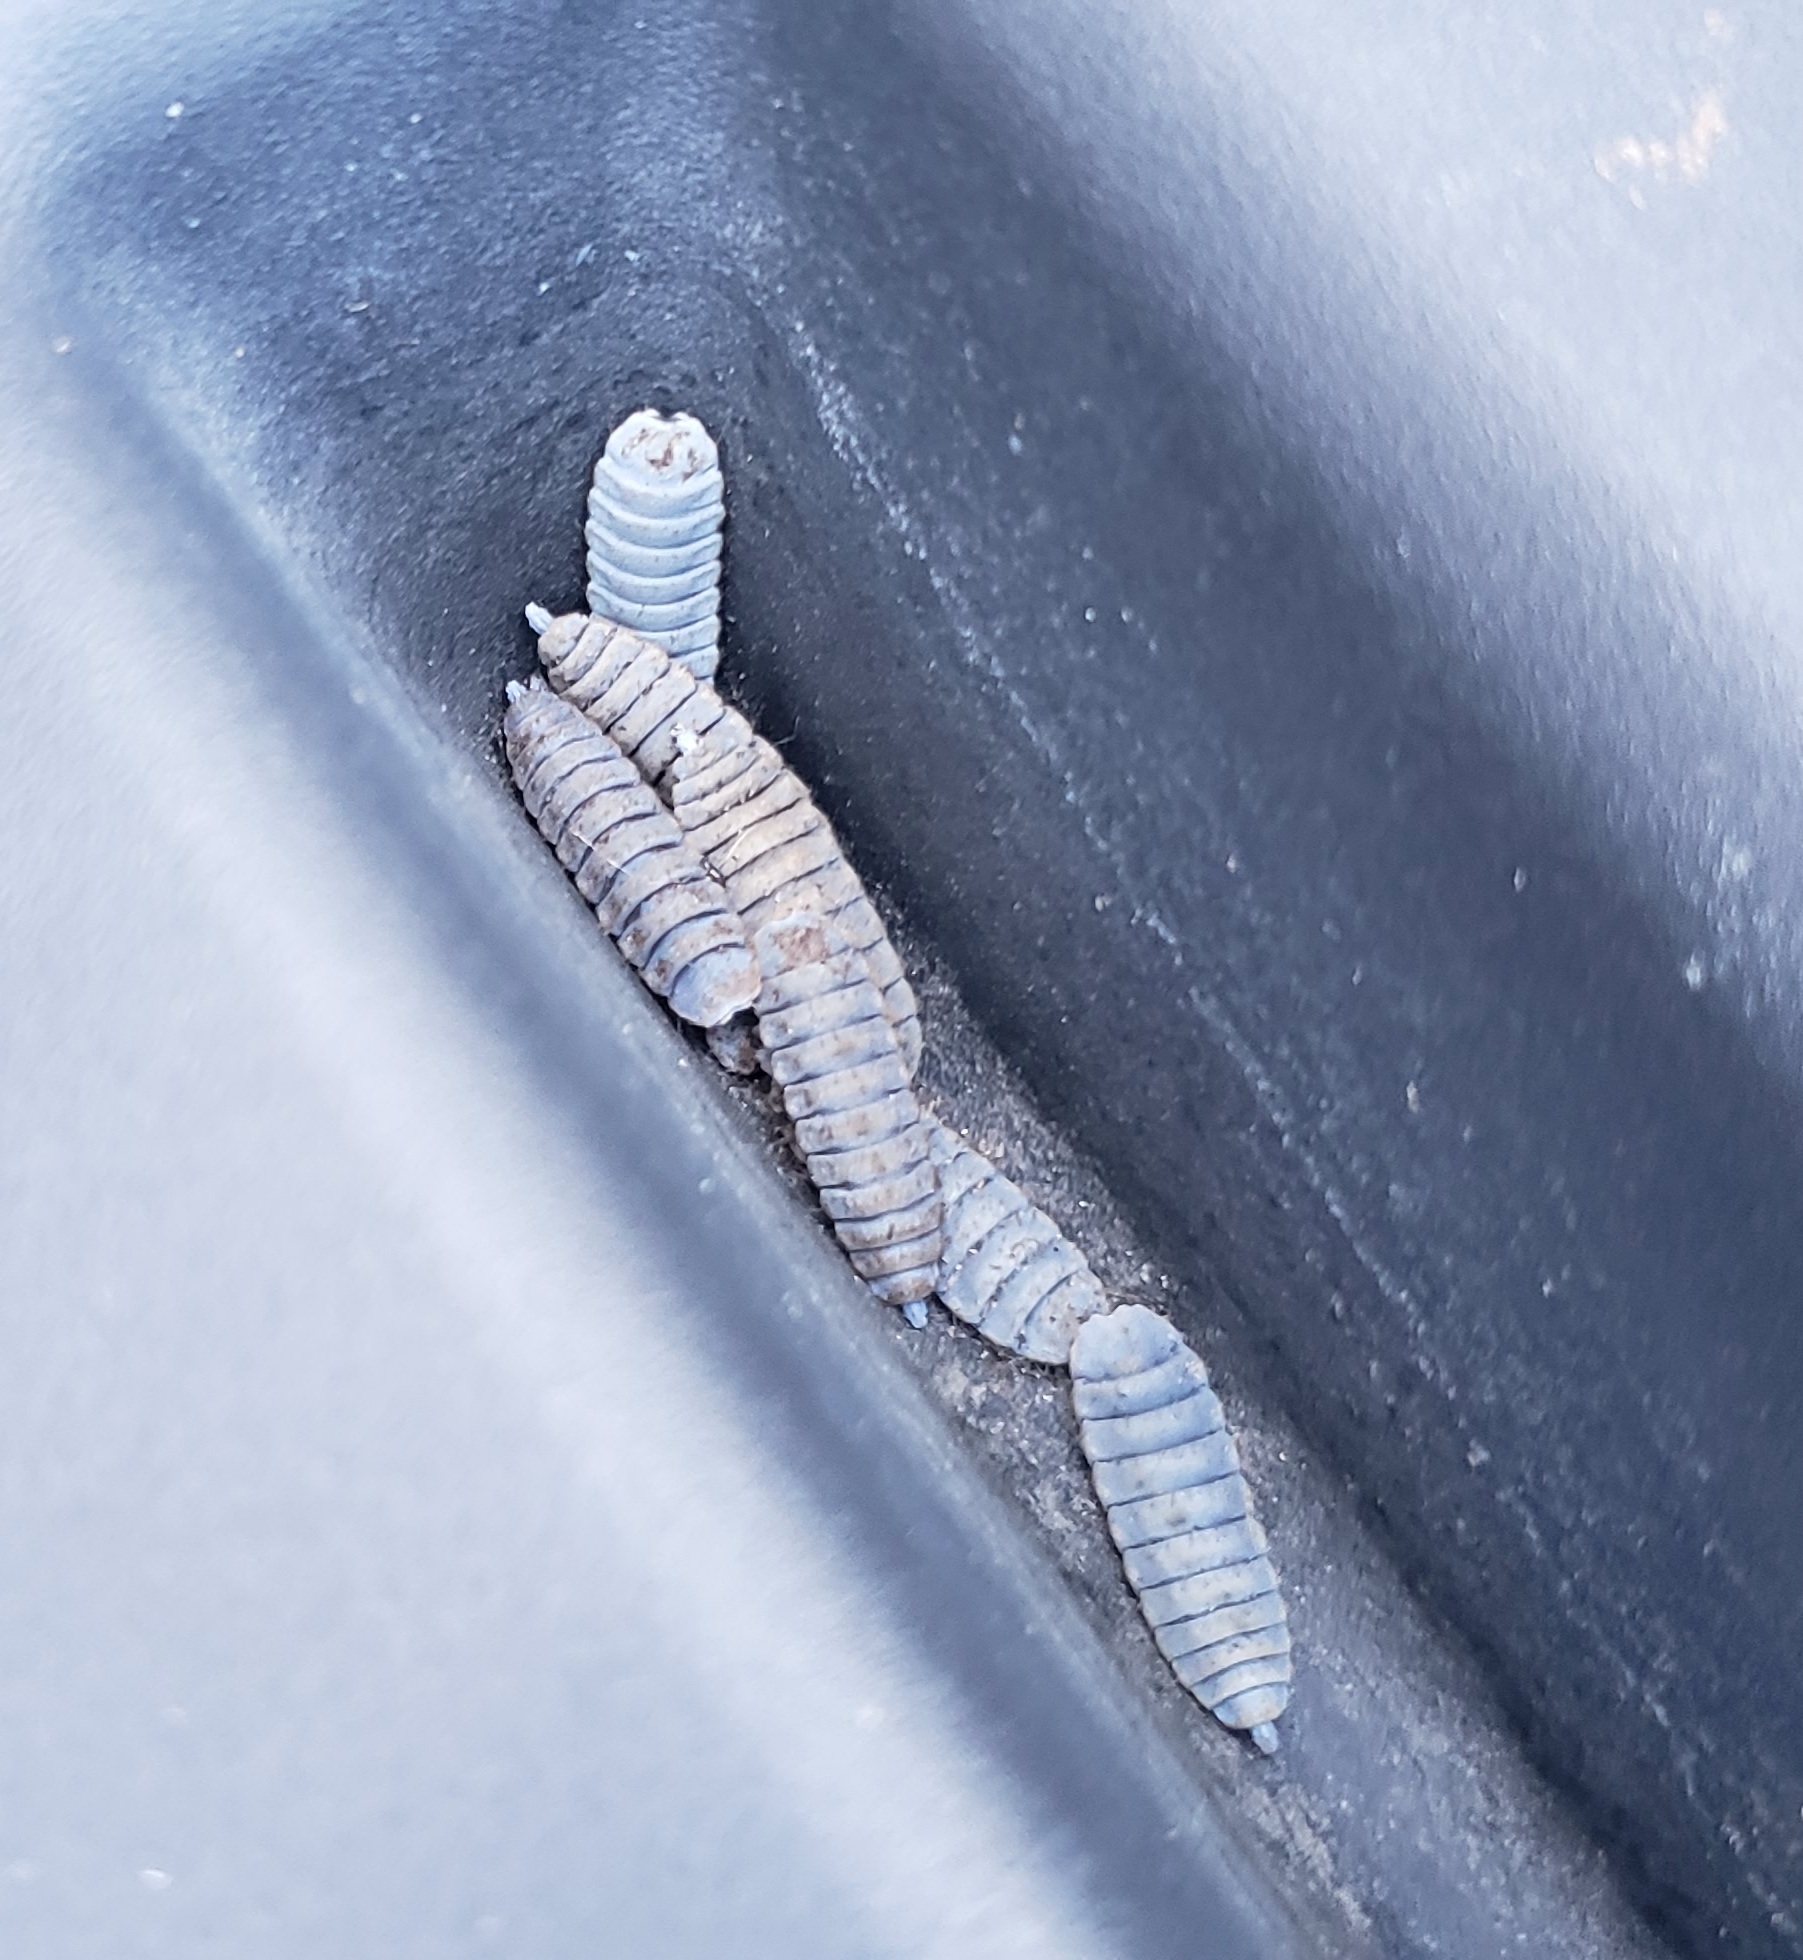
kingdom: Animalia
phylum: Arthropoda
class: Insecta
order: Diptera
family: Stratiomyidae
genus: Hermetia
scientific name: Hermetia illucens
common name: Black soldier fly
